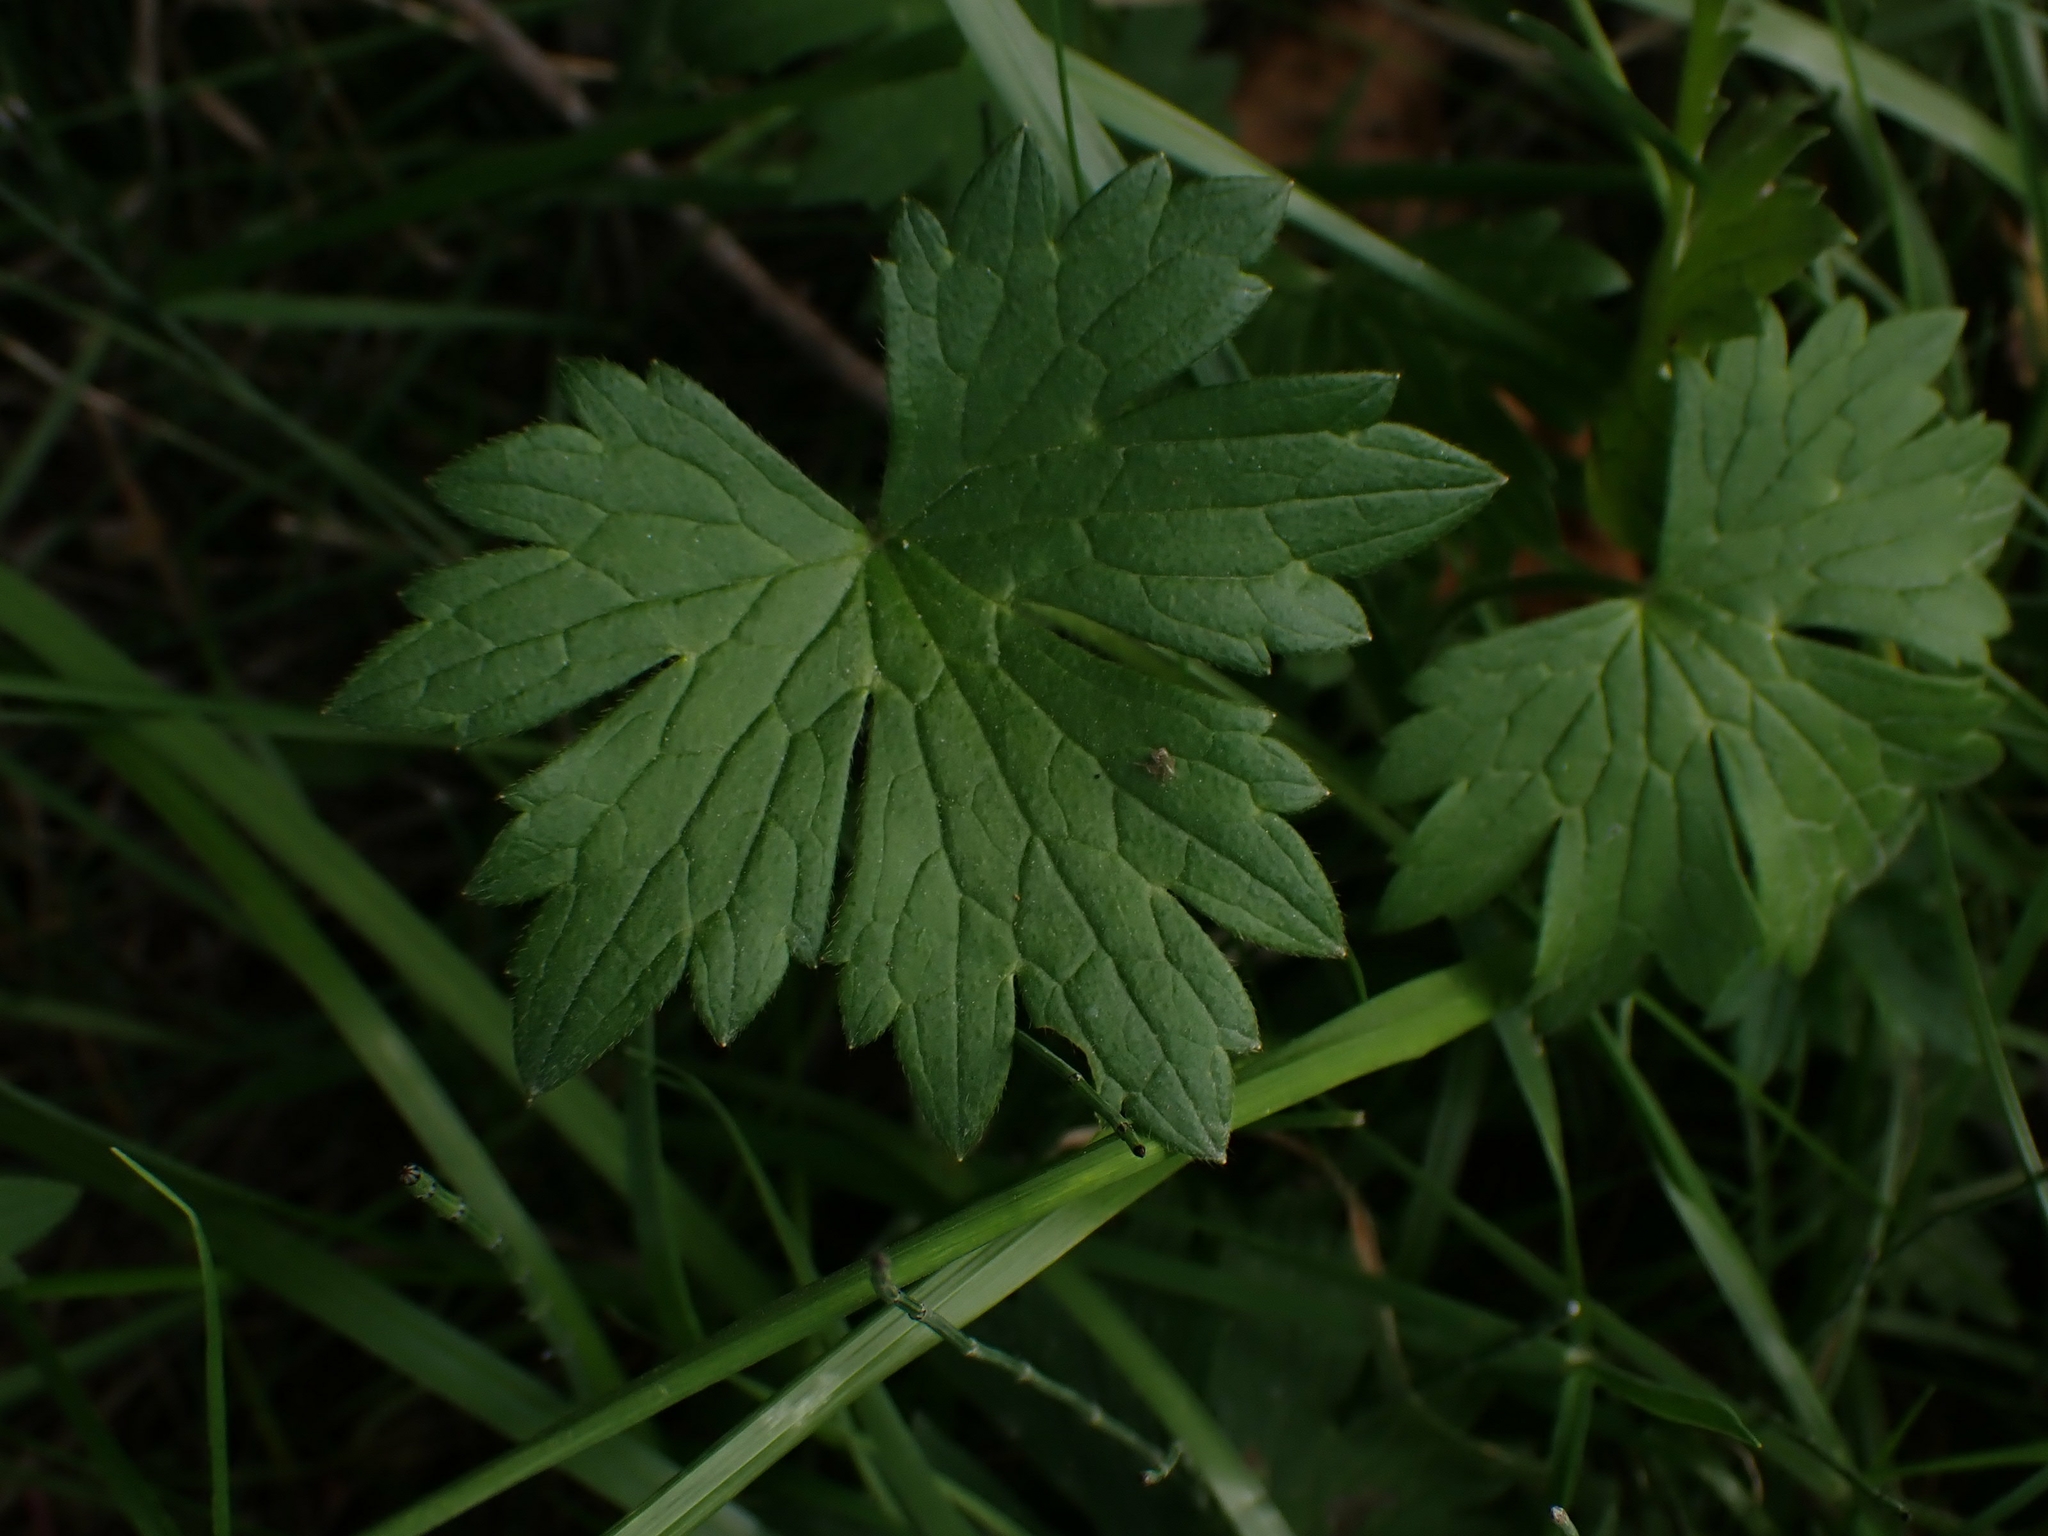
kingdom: Plantae
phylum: Tracheophyta
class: Magnoliopsida
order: Ranunculales
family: Ranunculaceae
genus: Ranunculus
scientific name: Ranunculus acris
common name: Meadow buttercup
